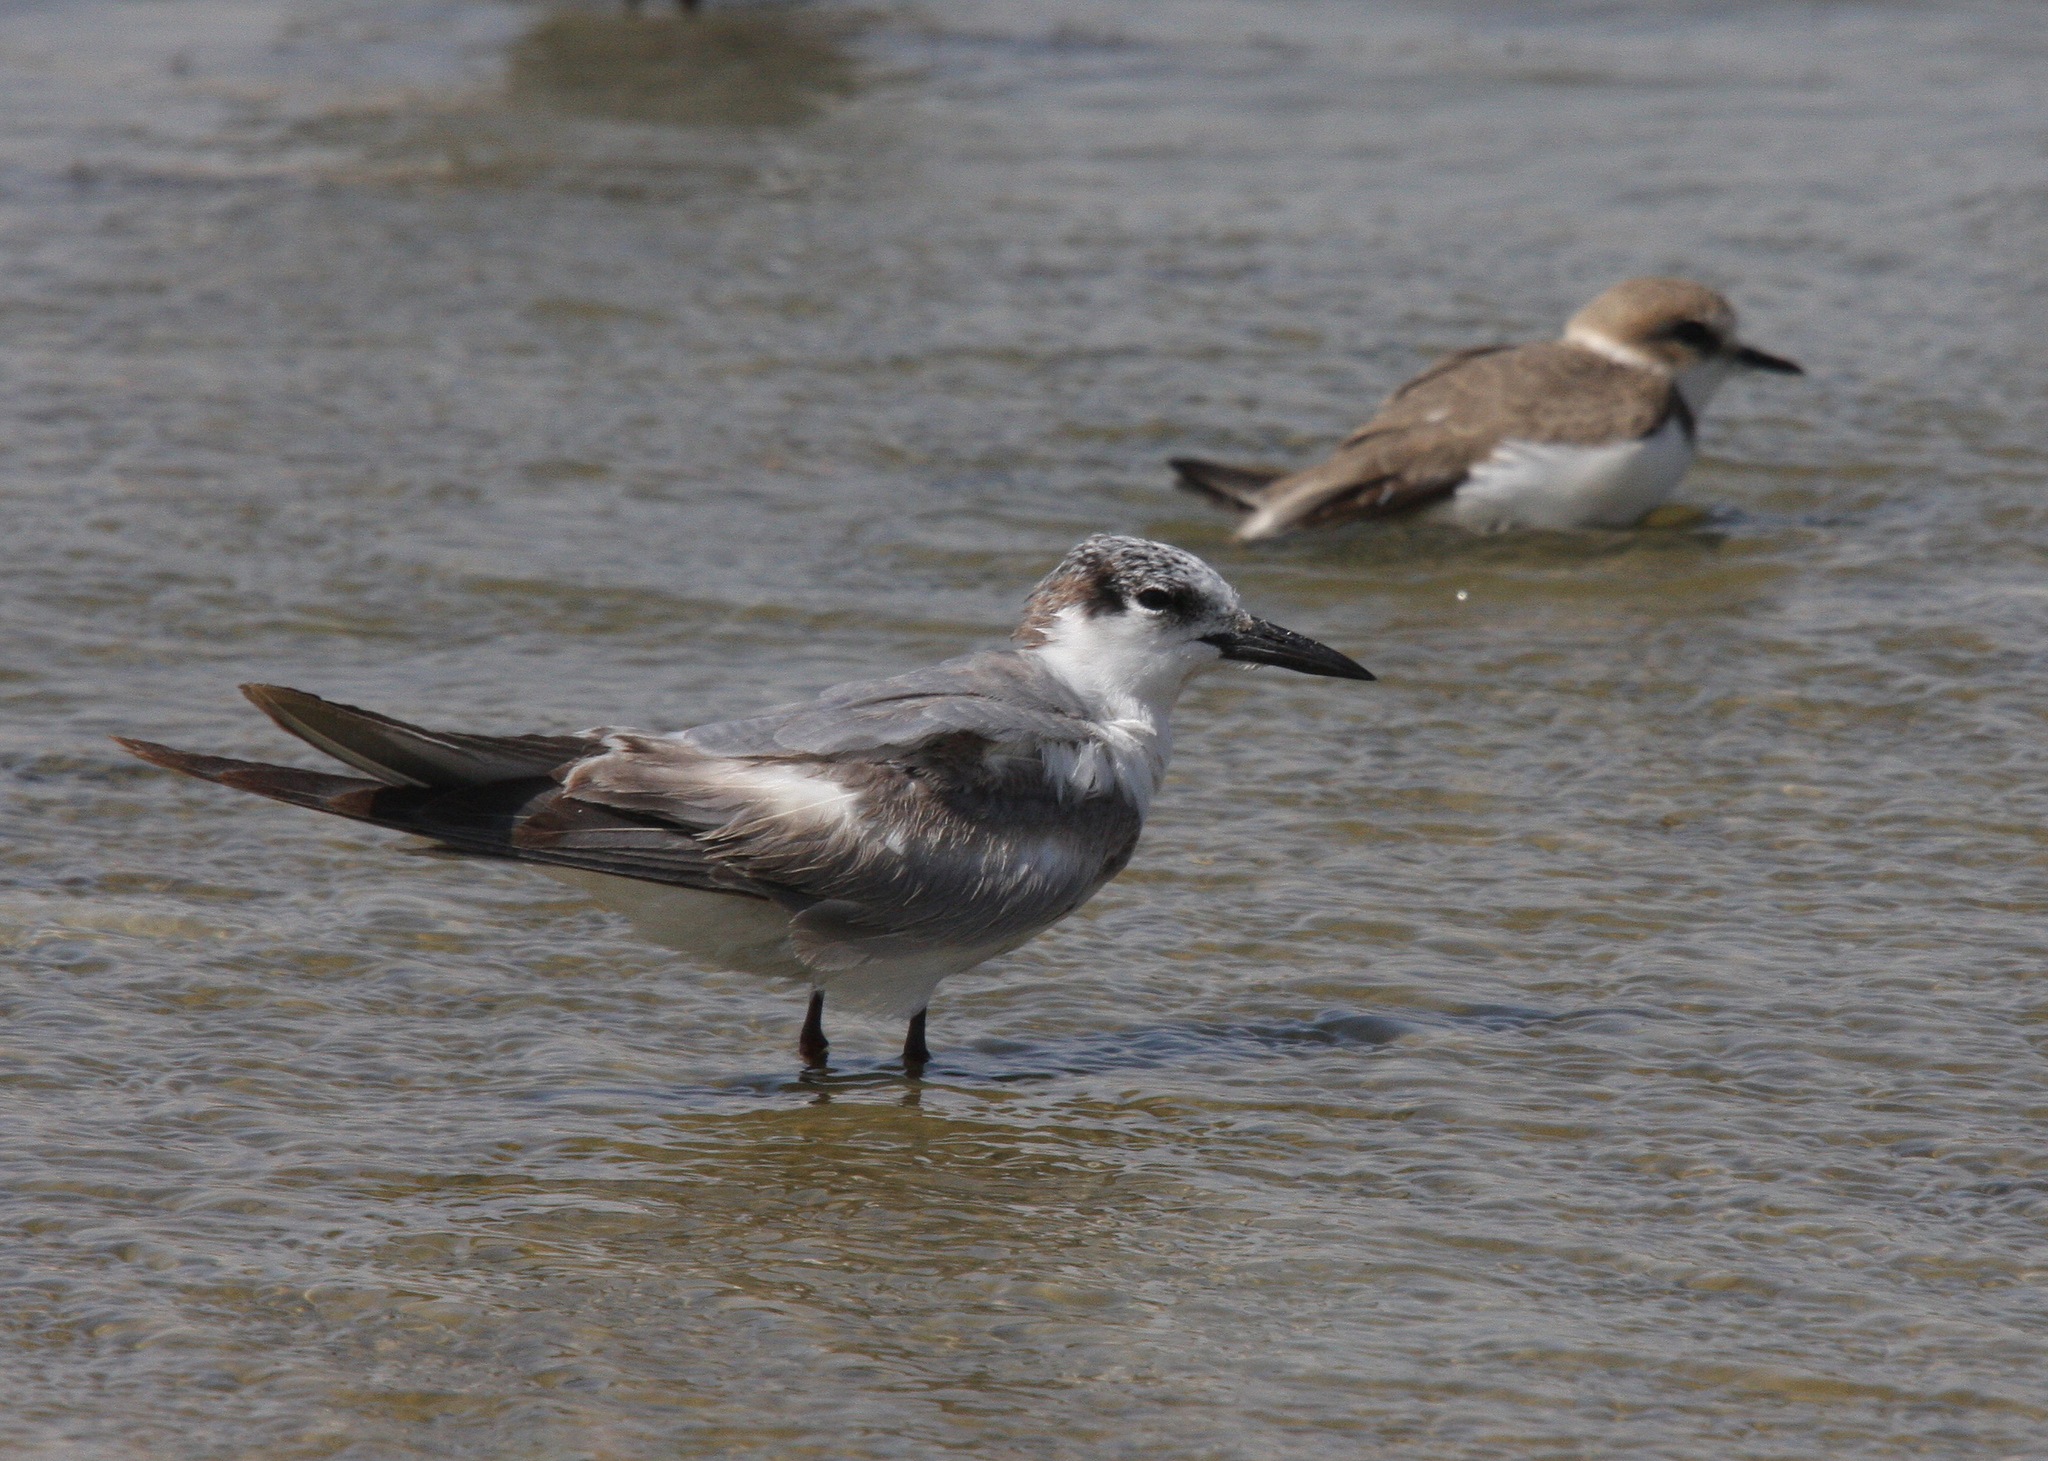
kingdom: Animalia
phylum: Chordata
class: Aves
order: Charadriiformes
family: Laridae
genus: Chlidonias
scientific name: Chlidonias hybrida
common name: Whiskered tern
